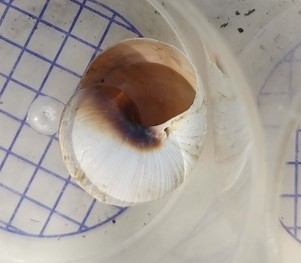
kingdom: Animalia
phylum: Mollusca
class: Gastropoda
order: Stylommatophora
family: Helicidae
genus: Helix
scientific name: Helix melanostoma
